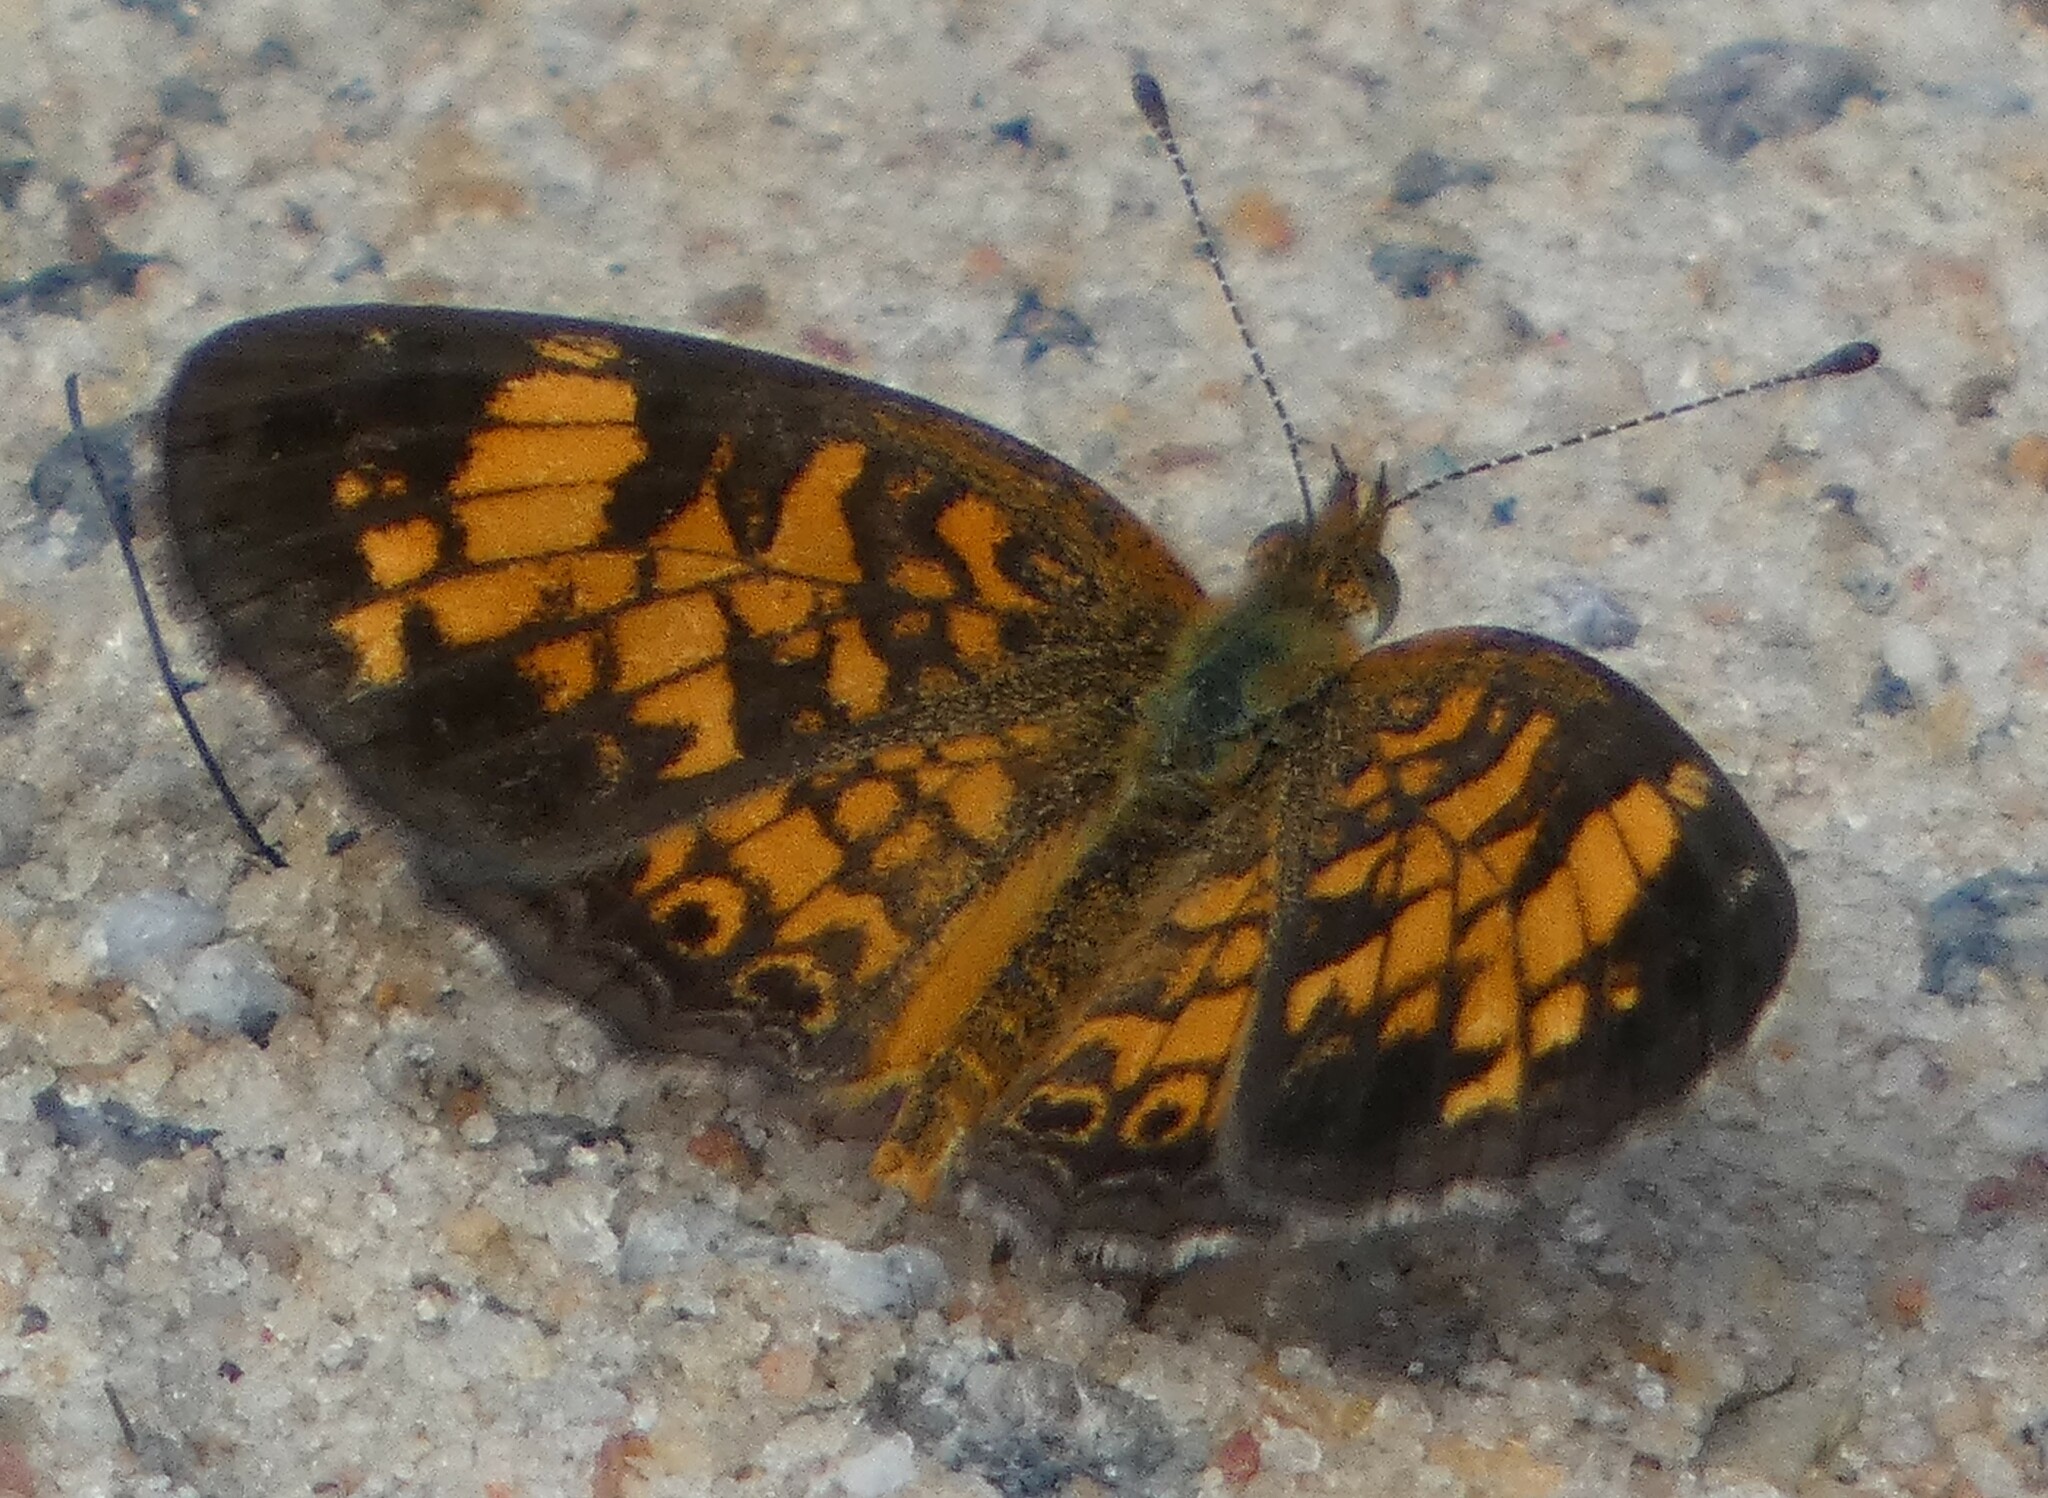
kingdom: Animalia
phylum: Arthropoda
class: Insecta
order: Lepidoptera
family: Nymphalidae
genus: Phyciodes
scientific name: Phyciodes tharos
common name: Pearl crescent
